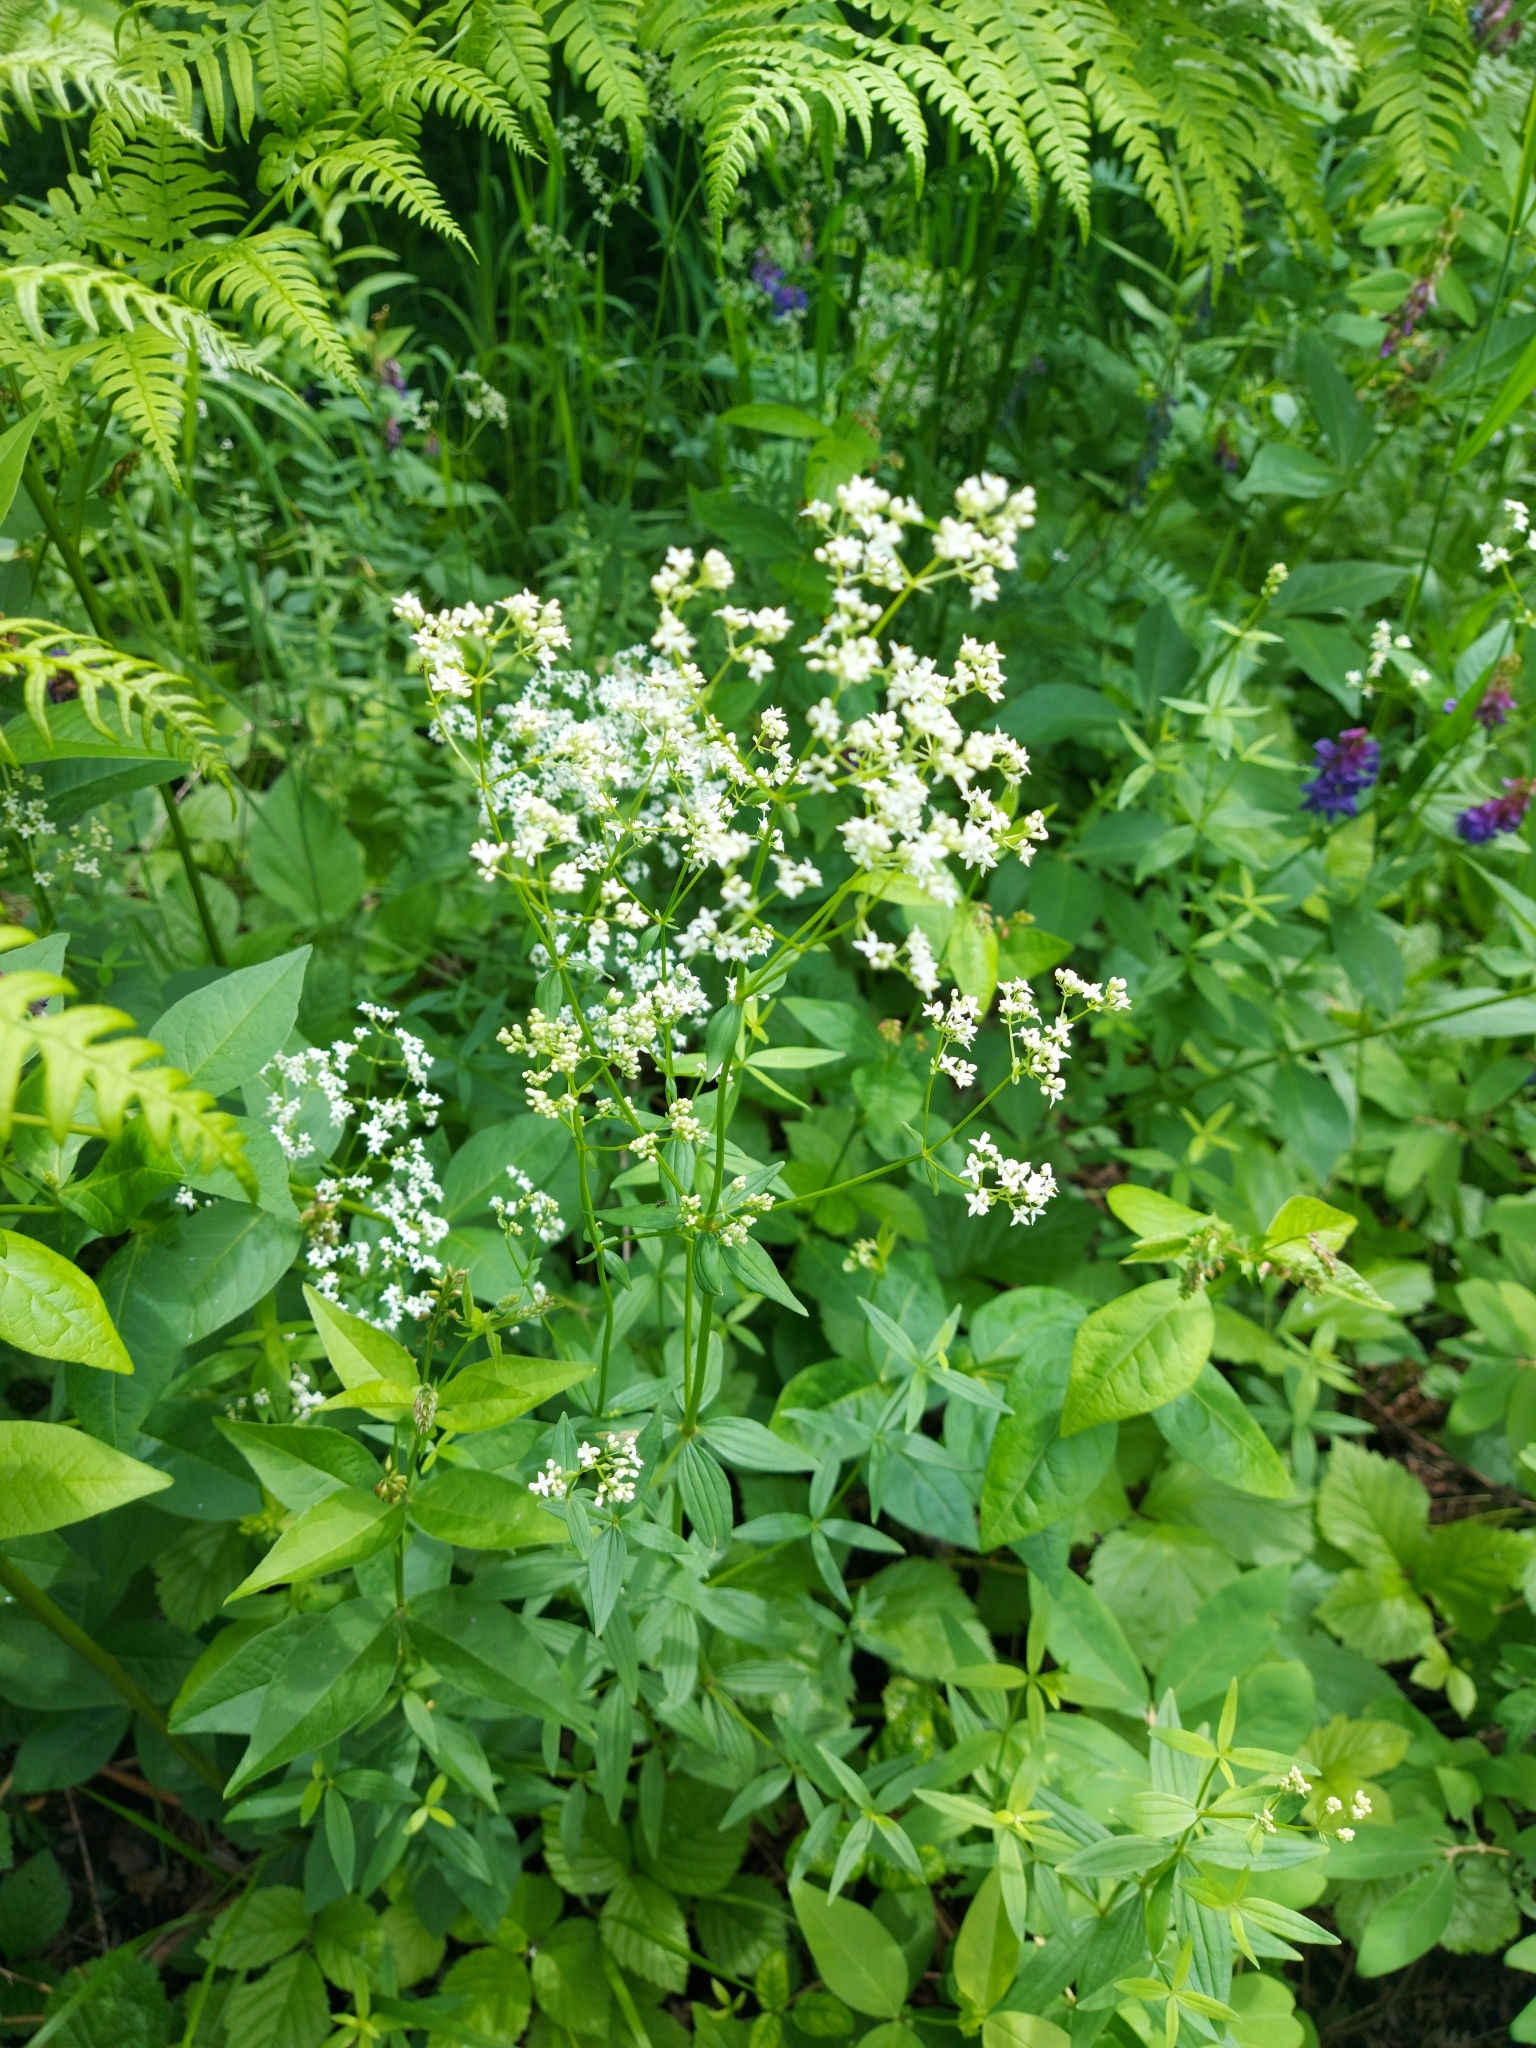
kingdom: Plantae
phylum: Tracheophyta
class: Magnoliopsida
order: Gentianales
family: Rubiaceae
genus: Galium
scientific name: Galium boreale
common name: Northern bedstraw
